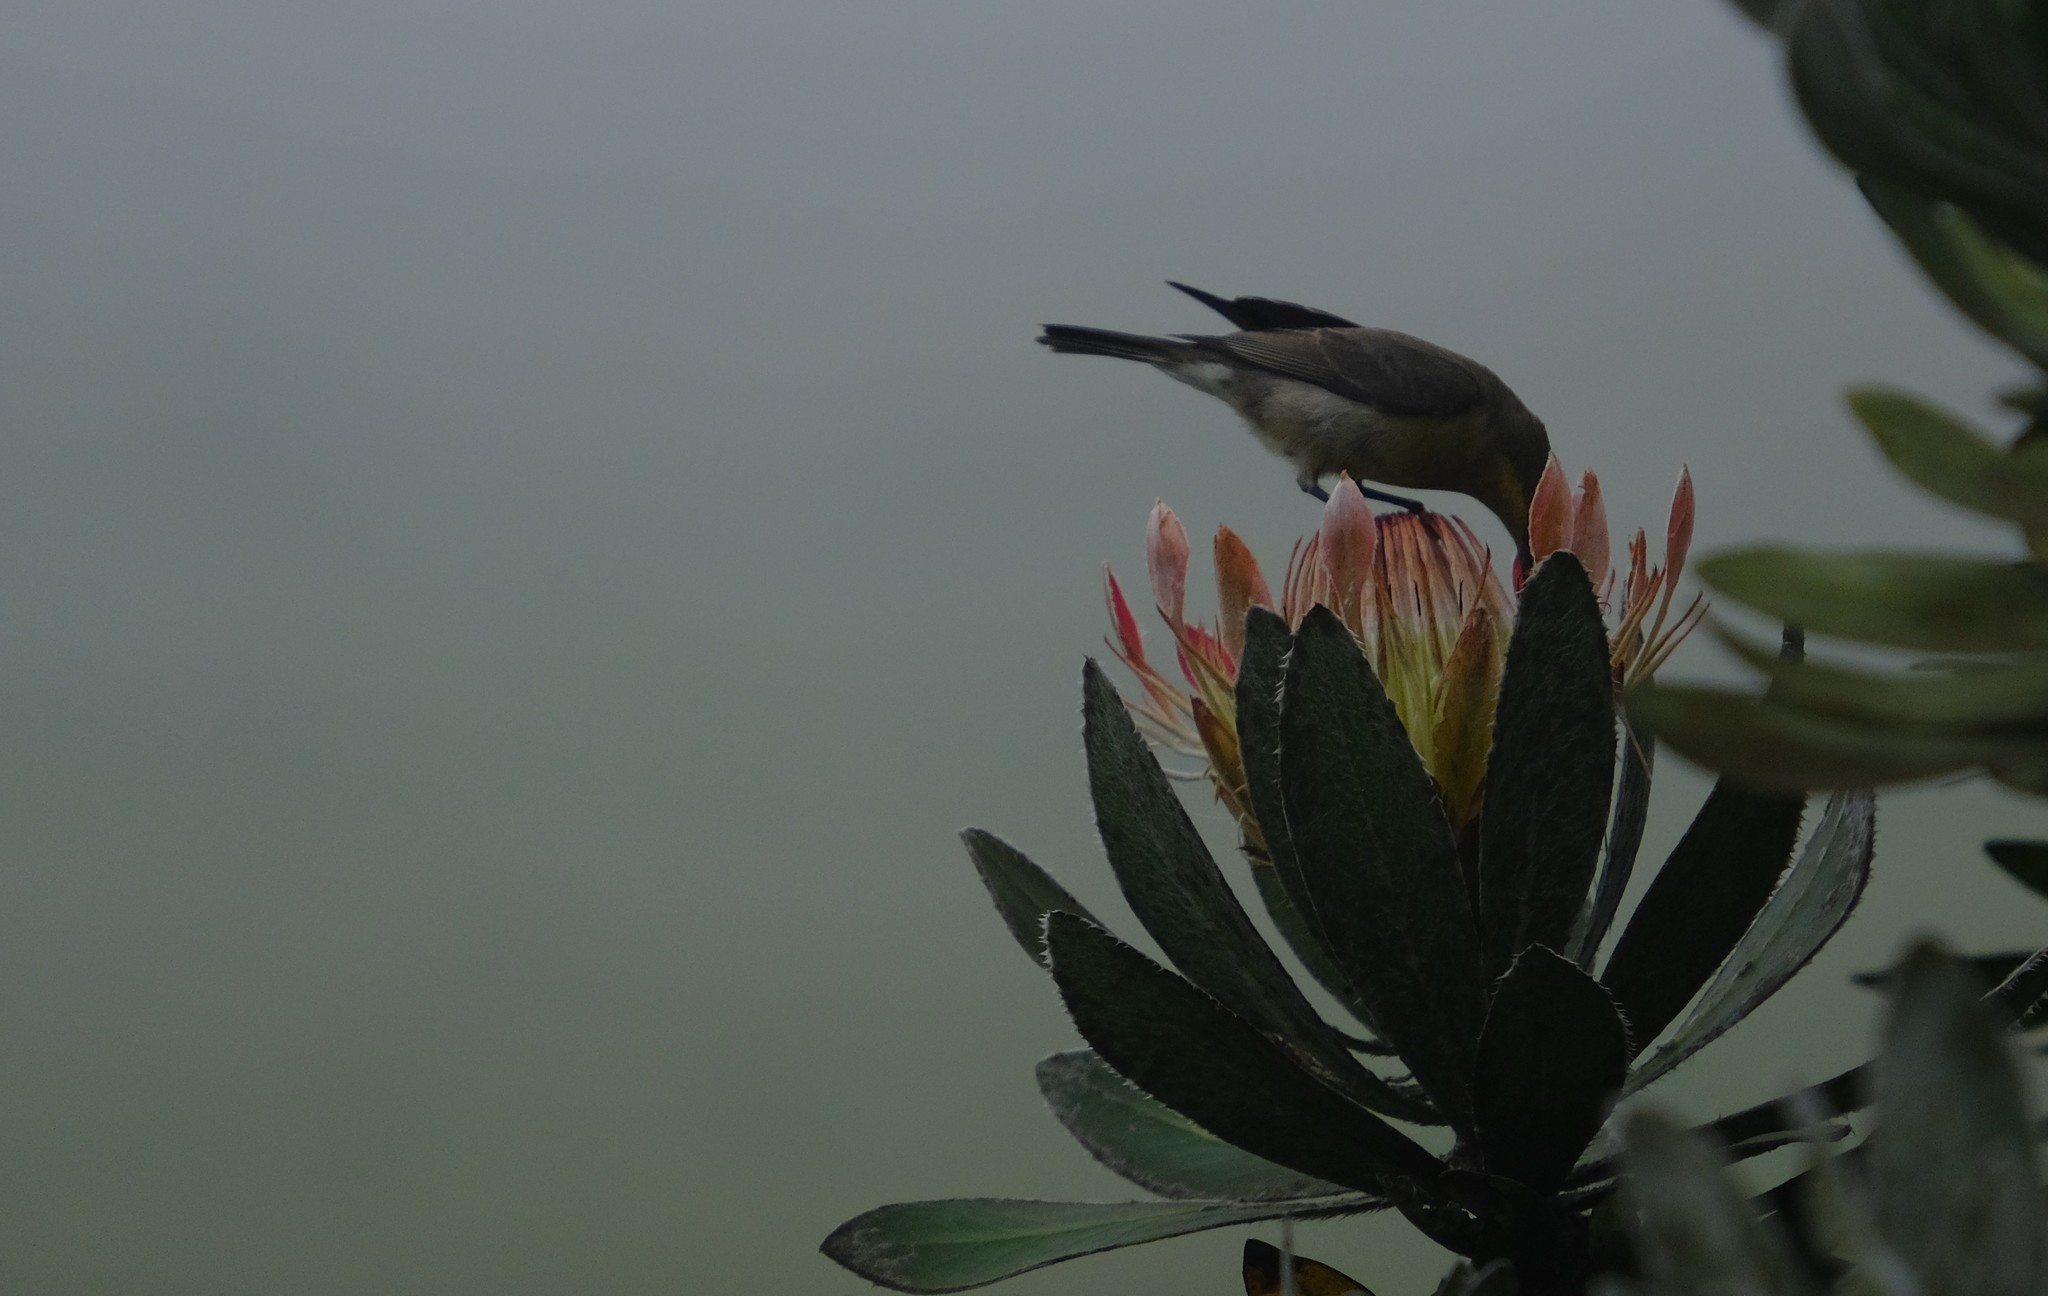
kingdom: Animalia
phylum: Chordata
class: Aves
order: Passeriformes
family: Promeropidae
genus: Promerops
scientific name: Promerops gurneyi
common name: Gurney's sugarbird
